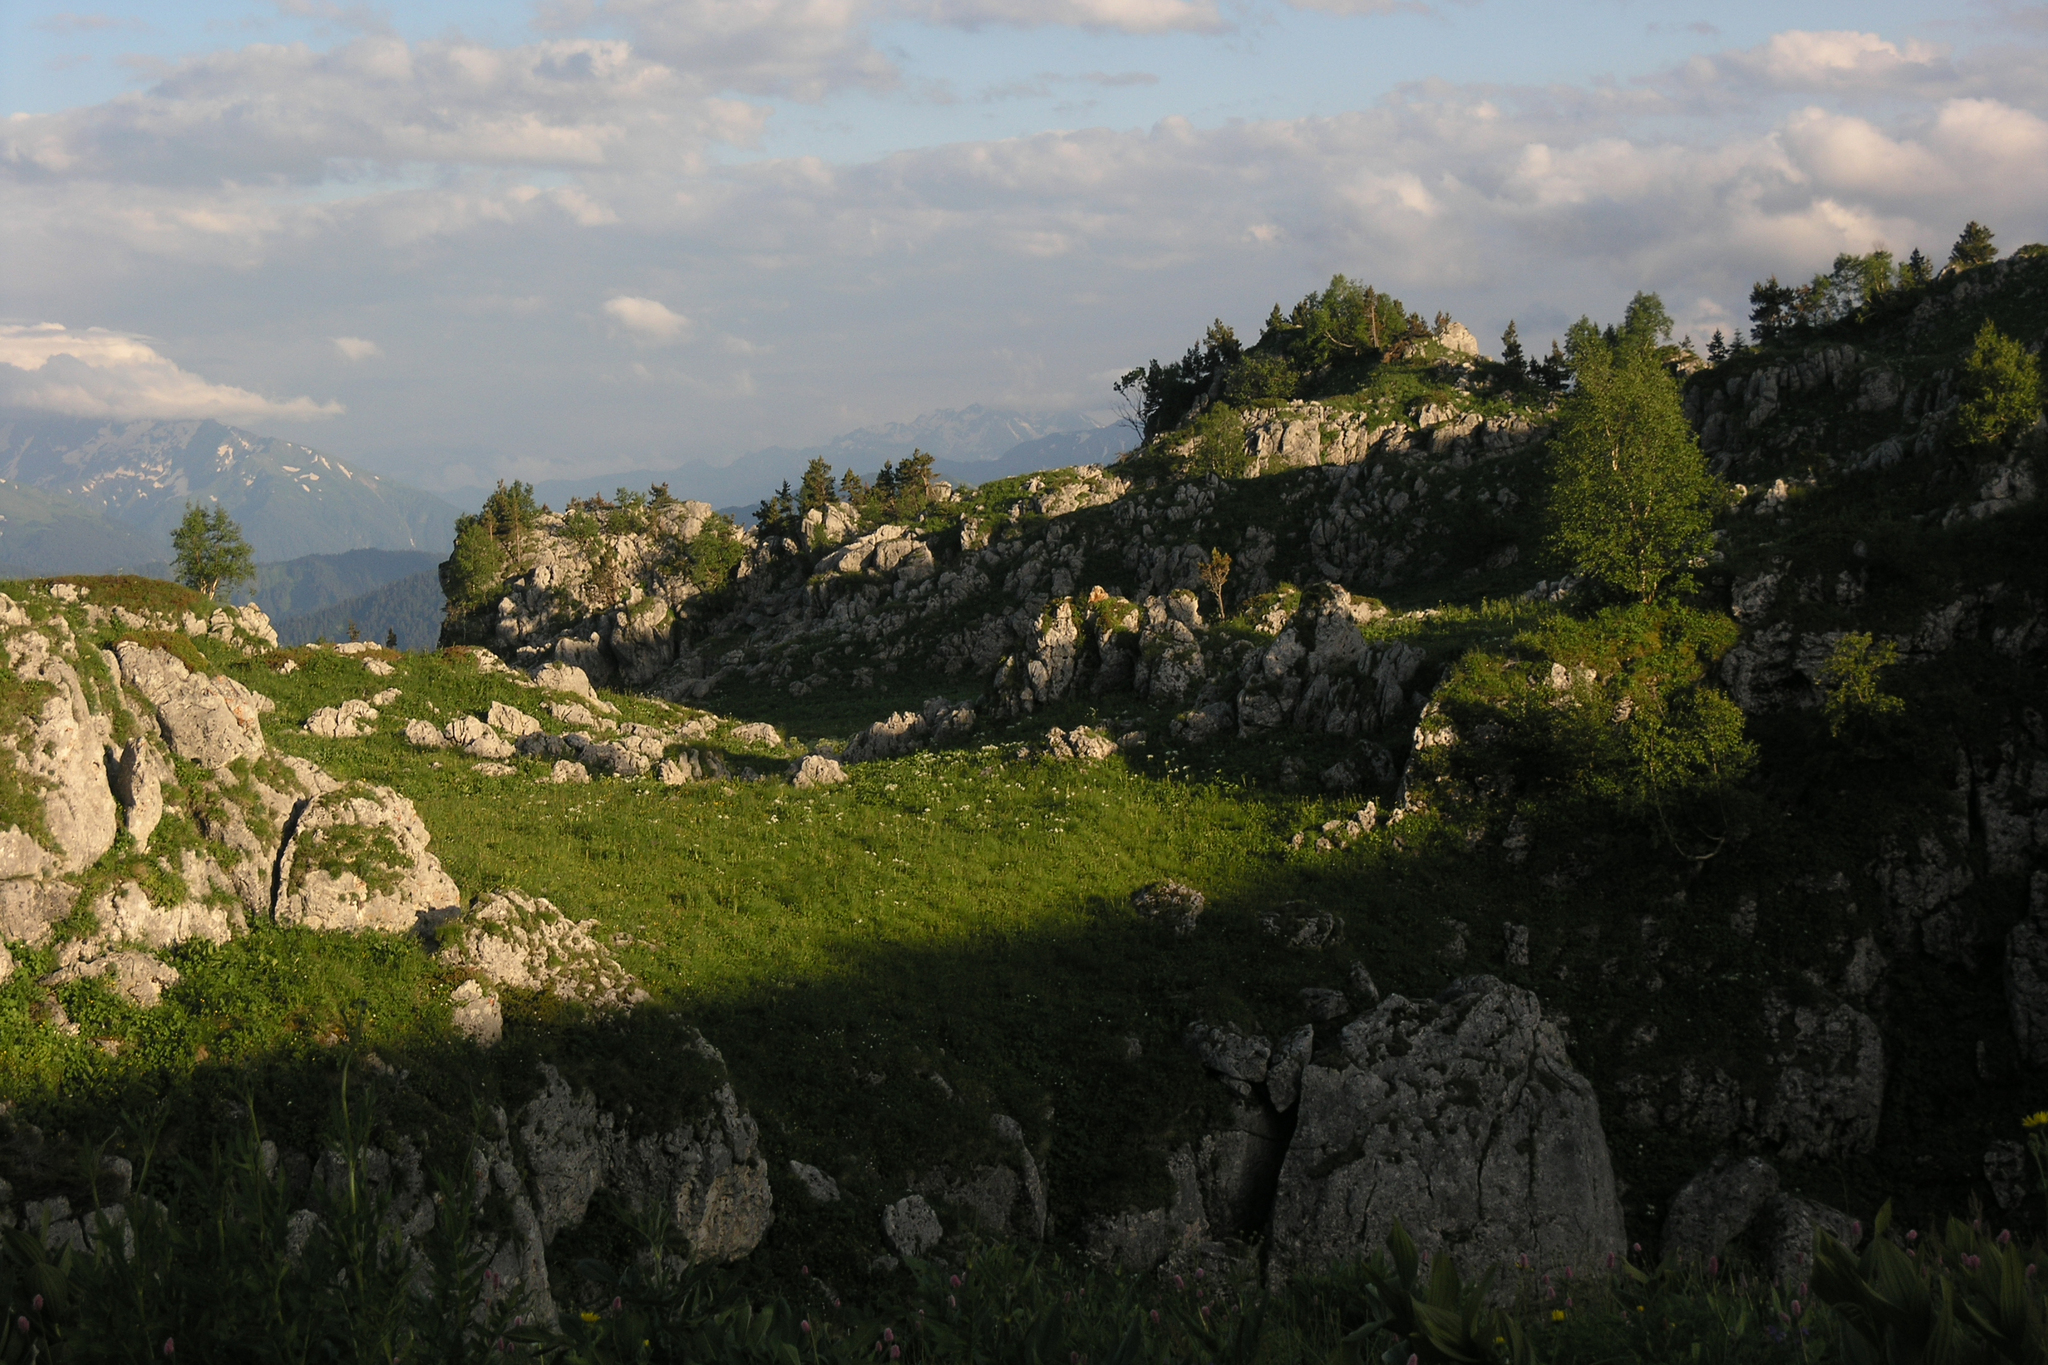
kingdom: Plantae
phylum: Tracheophyta
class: Pinopsida
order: Pinales
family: Pinaceae
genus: Pinus
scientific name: Pinus sylvestris
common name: Scots pine
